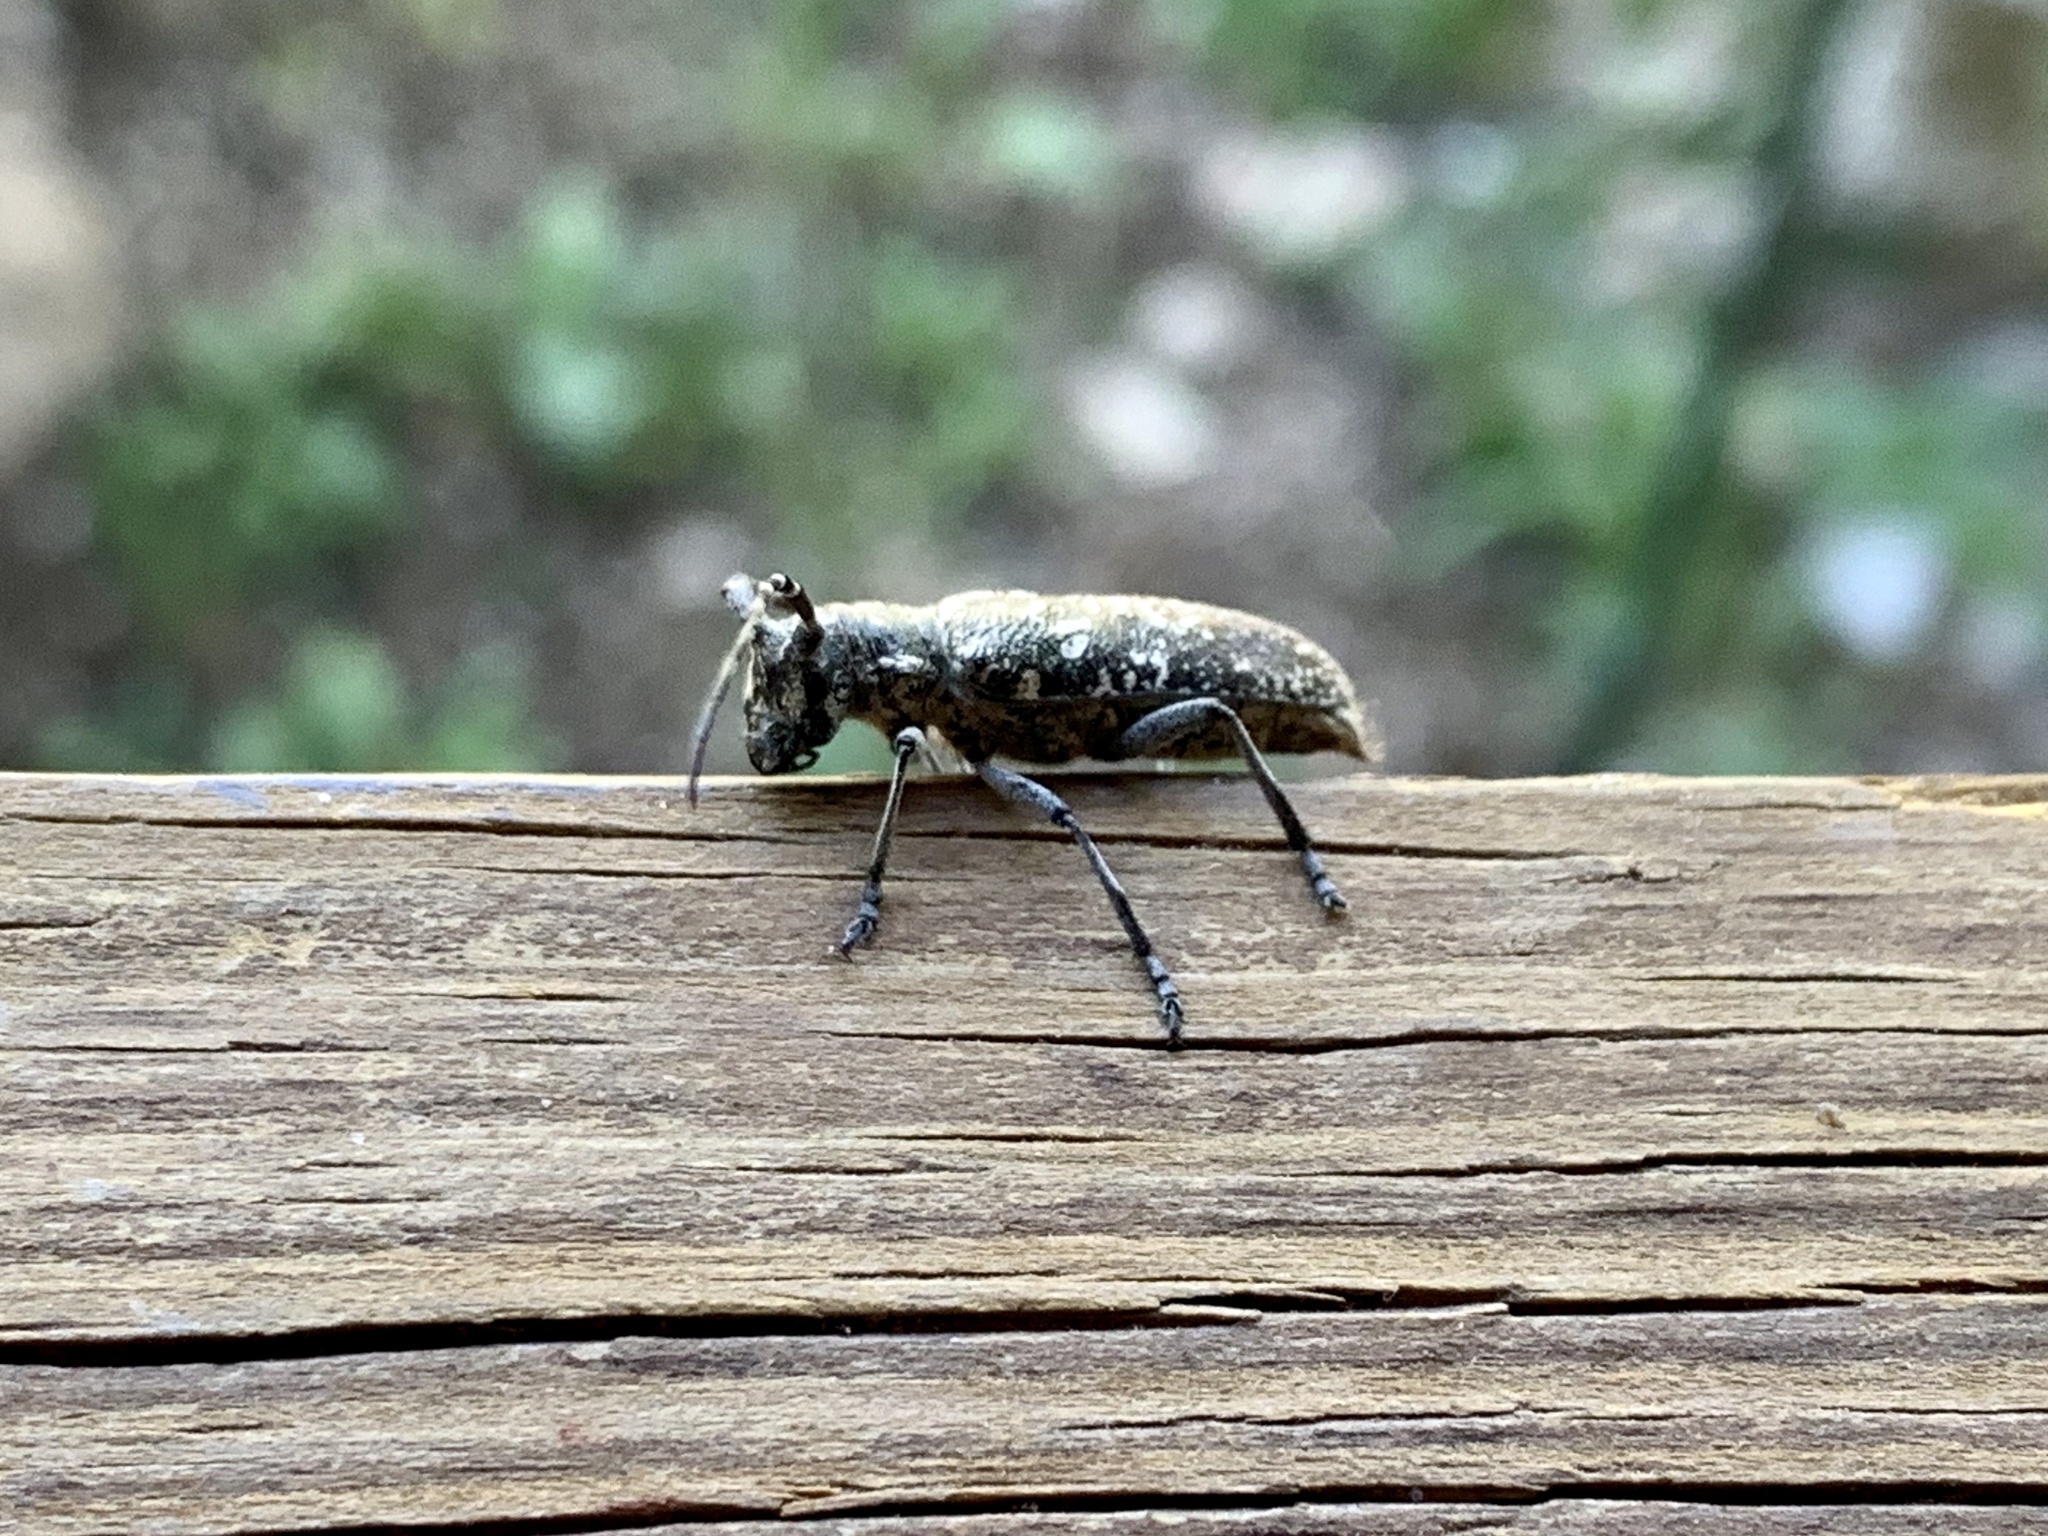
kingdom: Animalia
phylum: Arthropoda
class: Insecta
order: Coleoptera
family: Cerambycidae
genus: Monochamus
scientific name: Monochamus scutellatus
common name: White-spotted sawyer beetle
